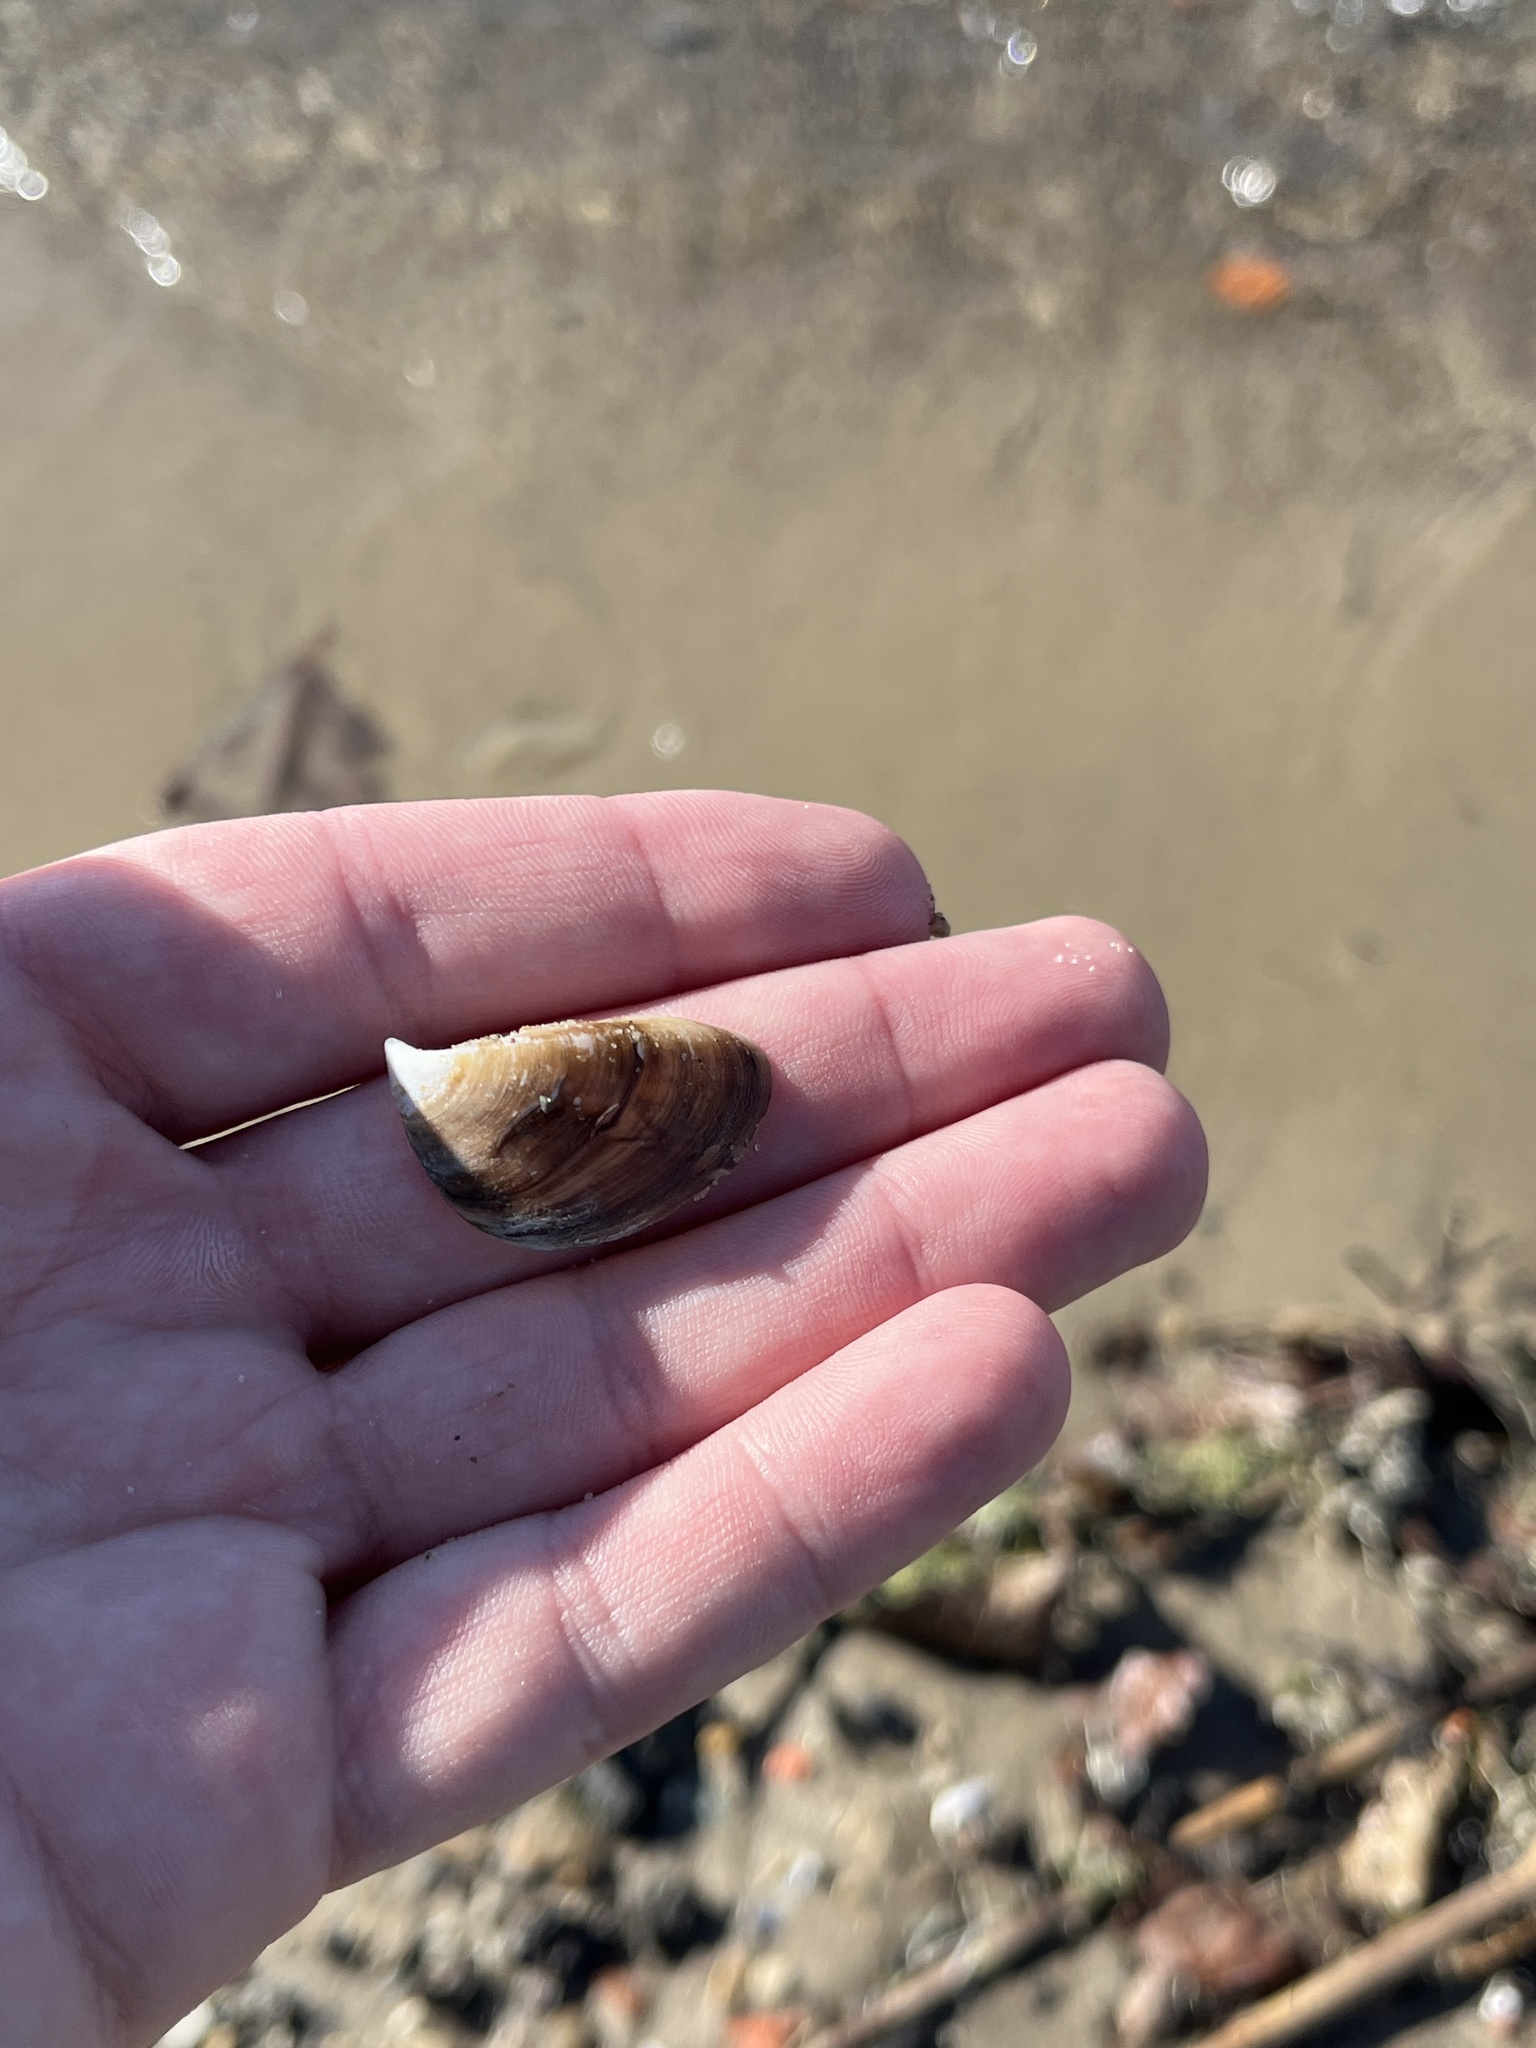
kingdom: Animalia
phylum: Mollusca
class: Bivalvia
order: Myida
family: Dreissenidae
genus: Dreissena
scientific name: Dreissena polymorpha
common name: Zebra mussel
